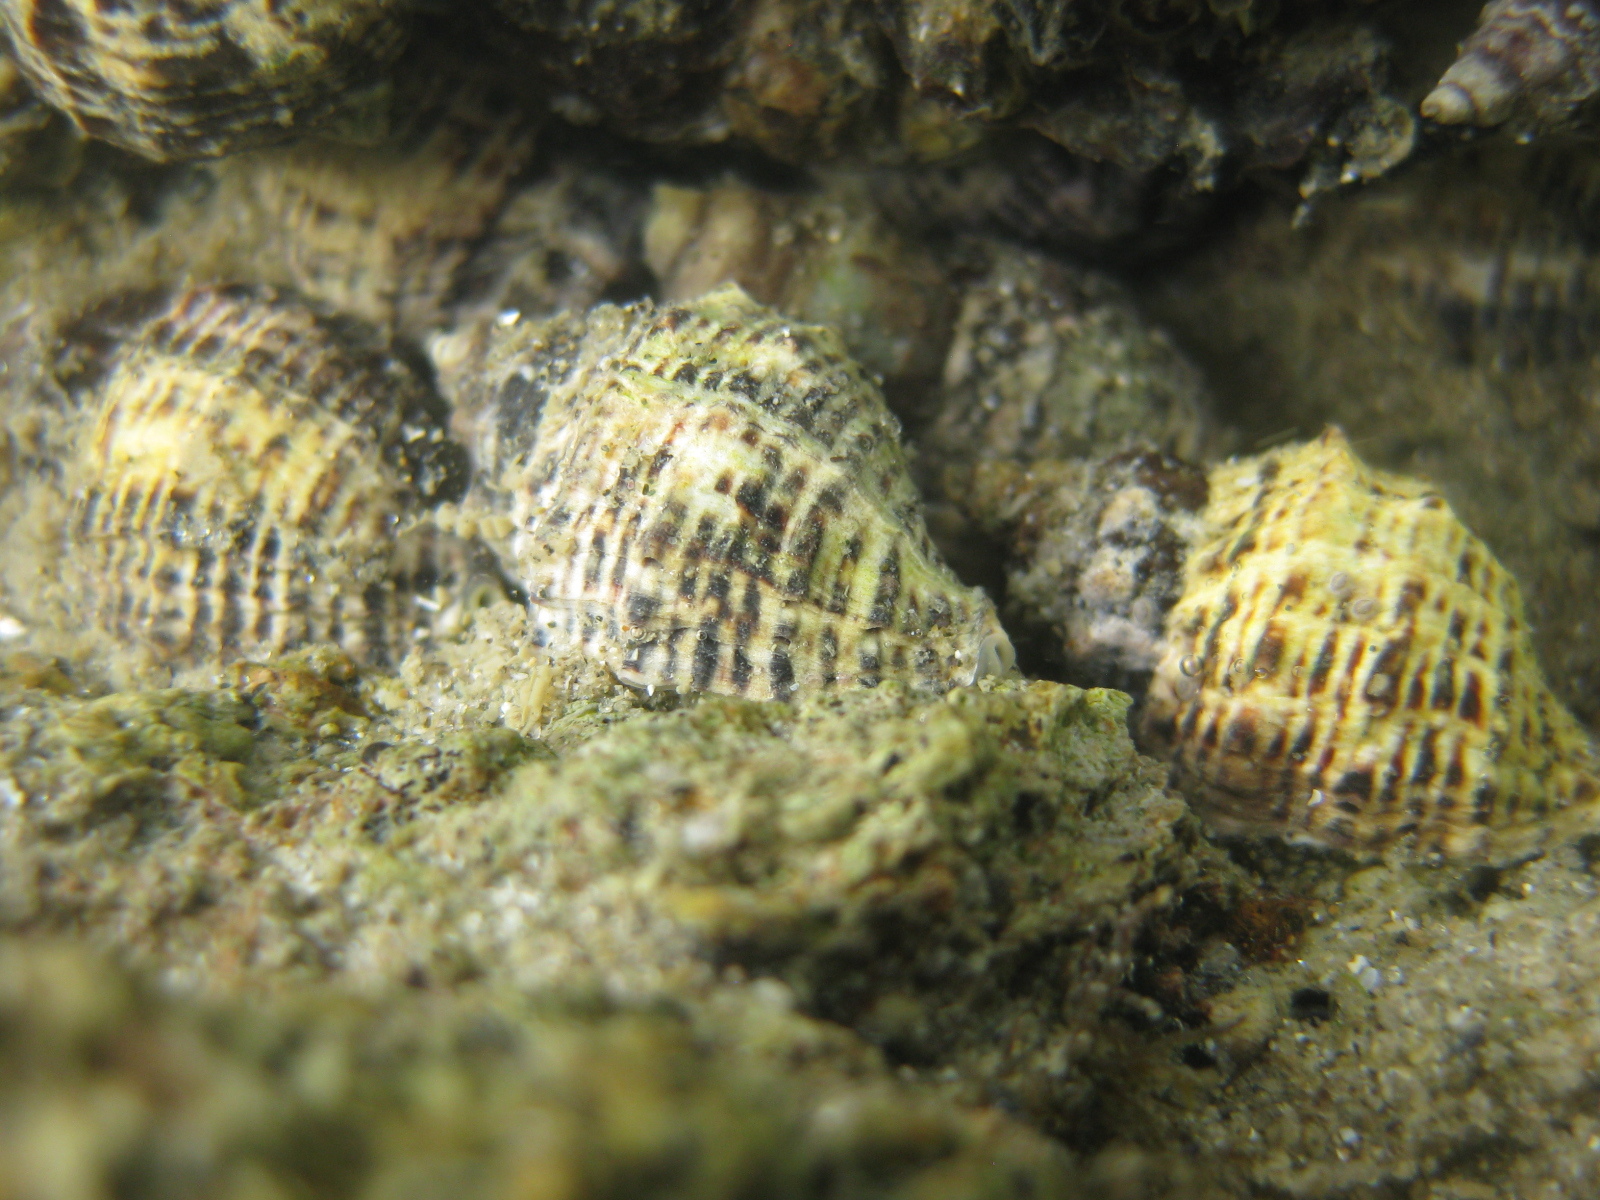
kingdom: Animalia
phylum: Mollusca
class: Gastropoda
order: Neogastropoda
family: Muricidae
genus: Haustrum
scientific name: Haustrum scobina
